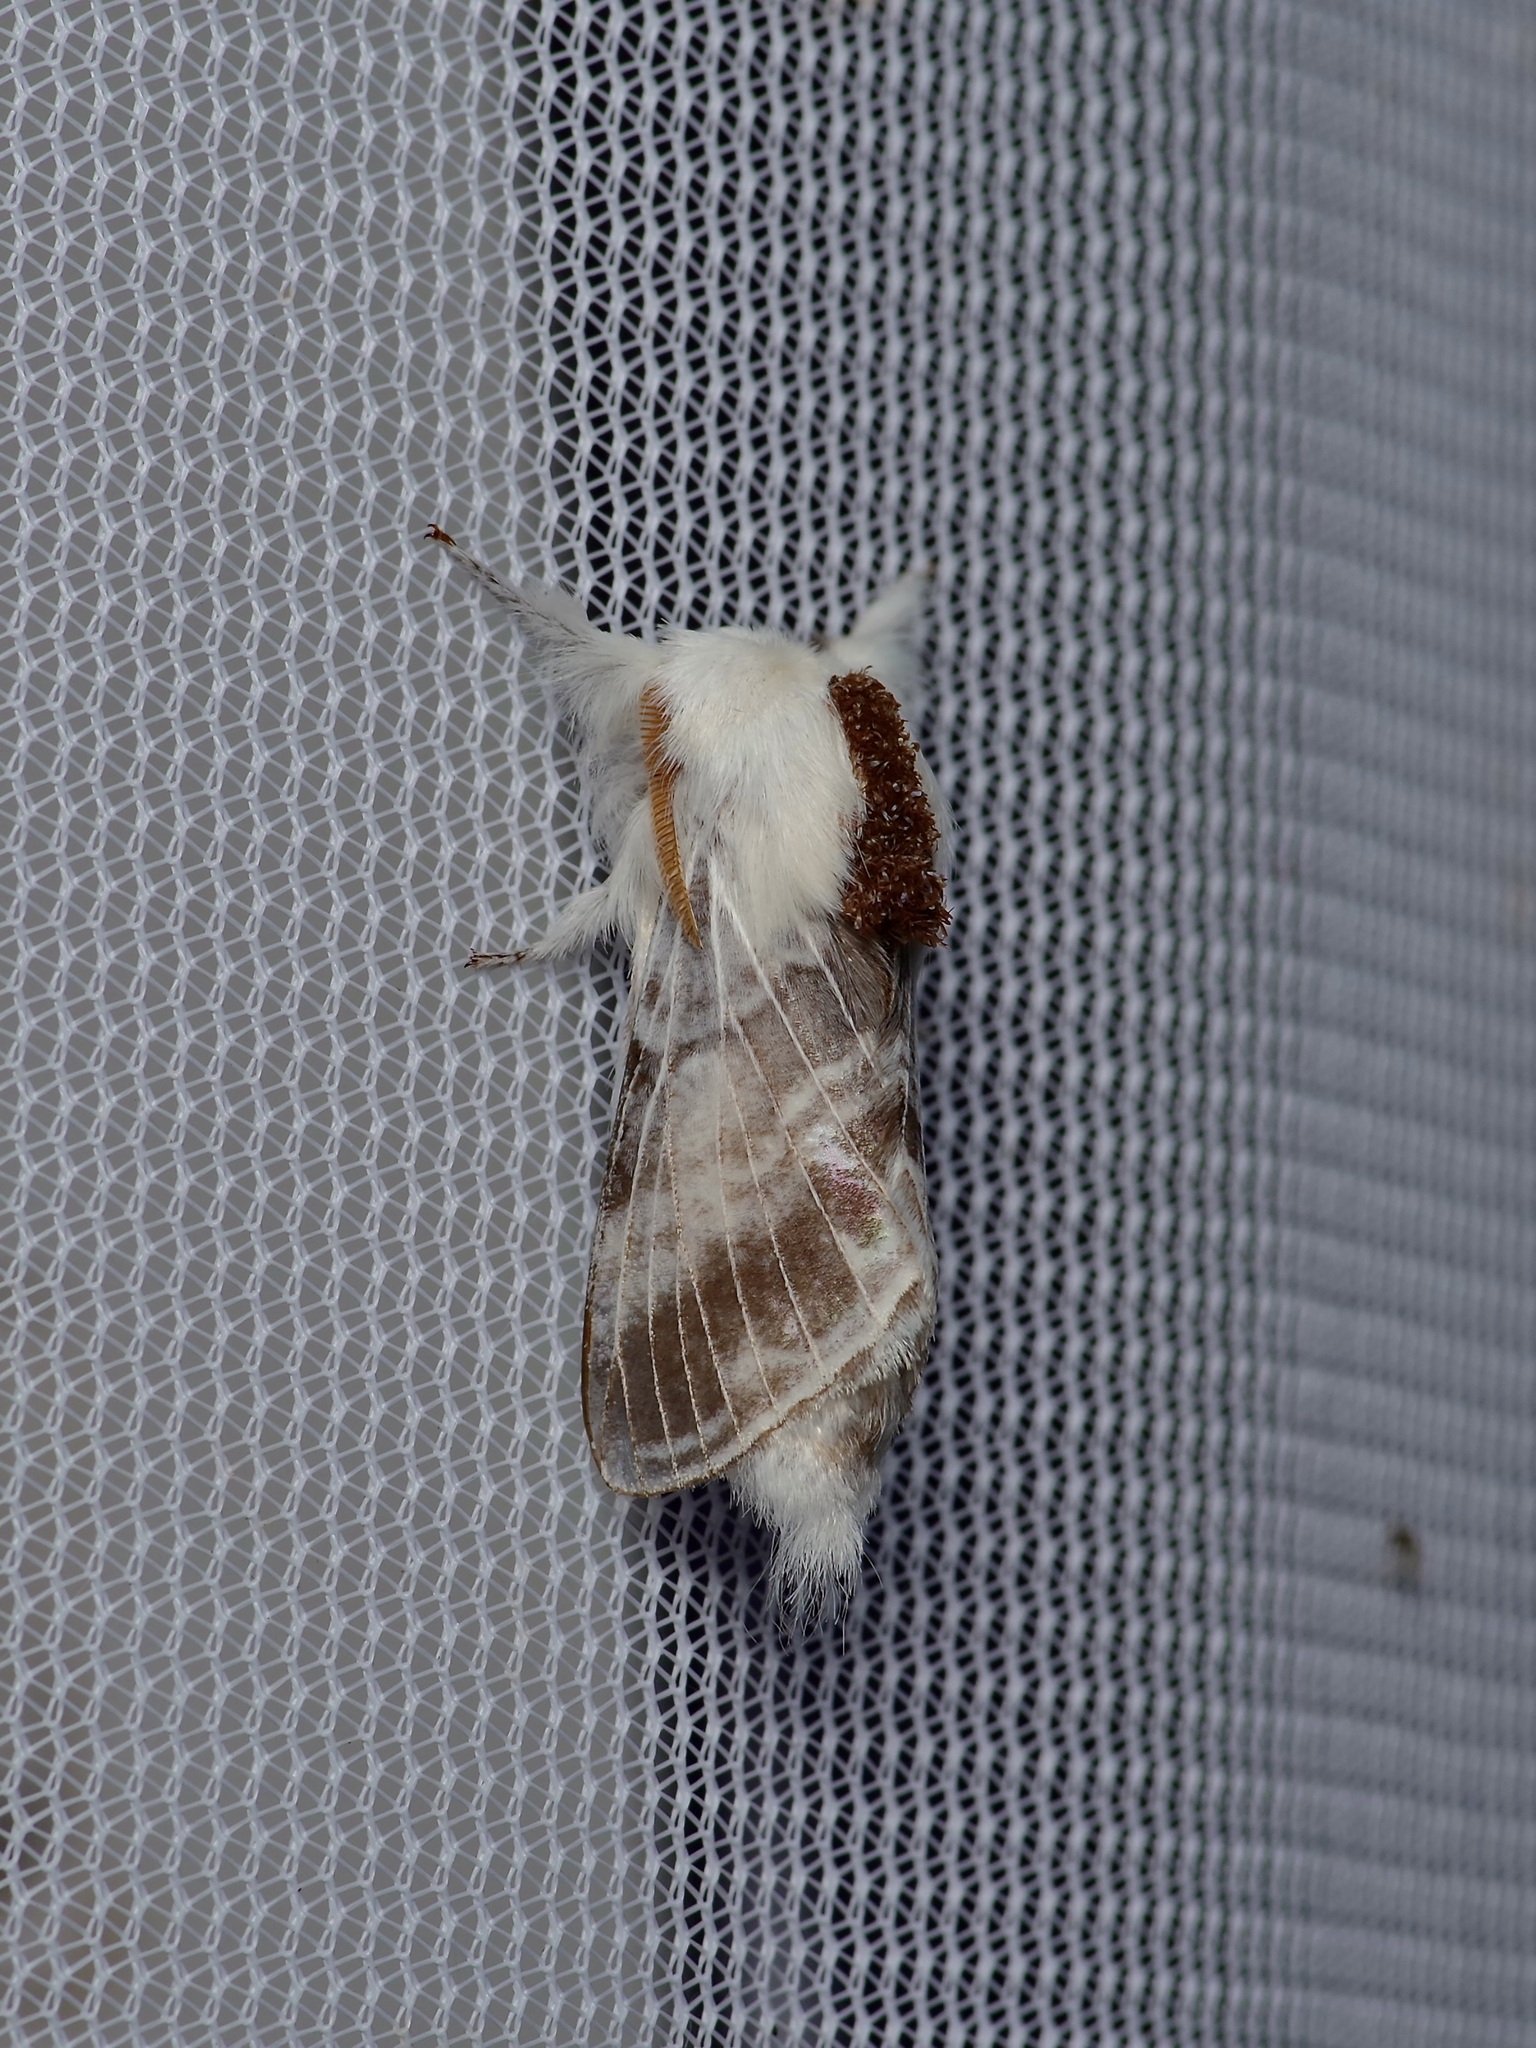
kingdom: Animalia
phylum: Arthropoda
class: Insecta
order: Lepidoptera
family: Lasiocampidae
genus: Tolype
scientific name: Tolype velleda
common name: Large tolype moth
